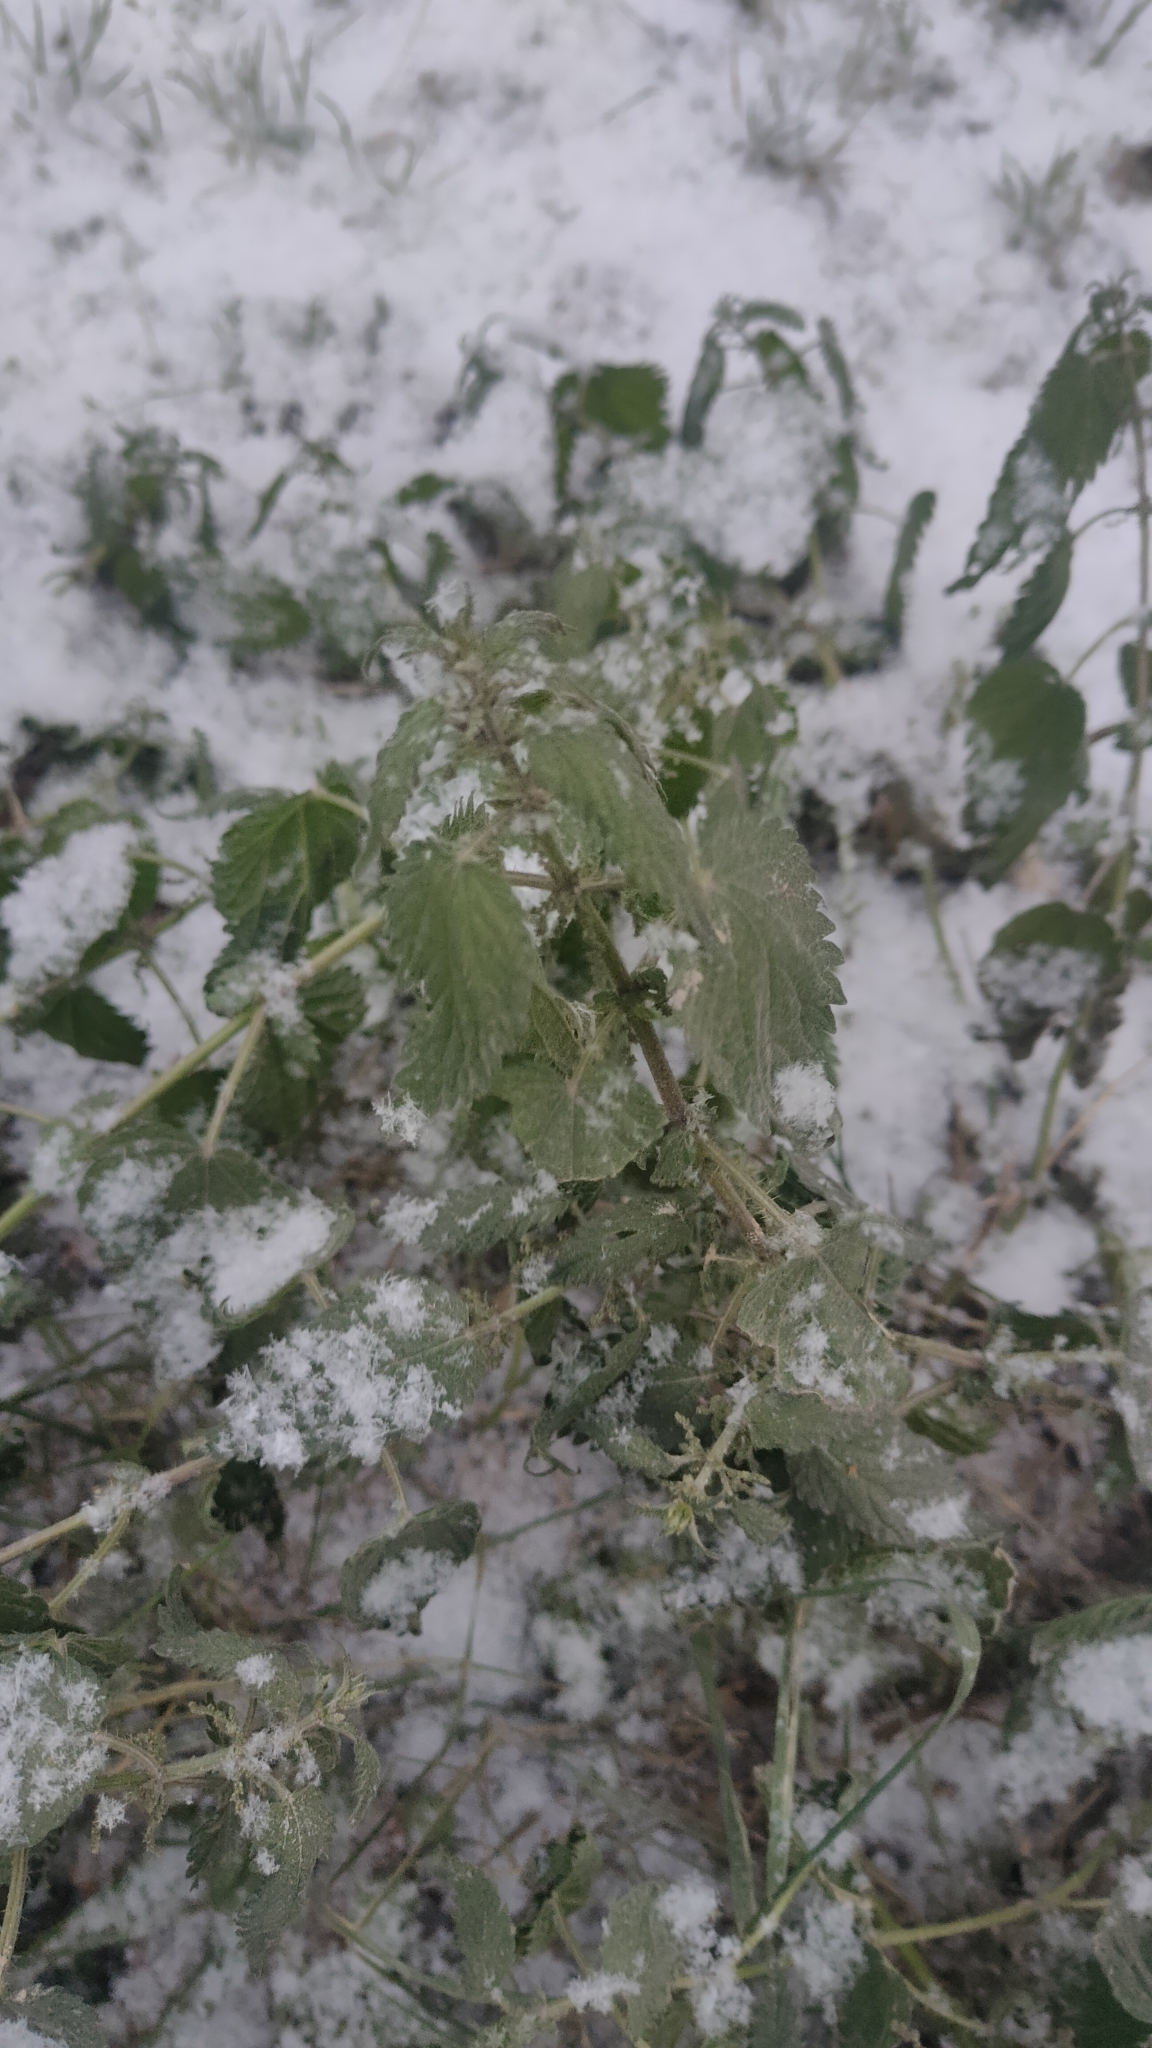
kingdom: Plantae
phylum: Tracheophyta
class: Magnoliopsida
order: Rosales
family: Urticaceae
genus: Urtica
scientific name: Urtica dioica
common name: Common nettle
